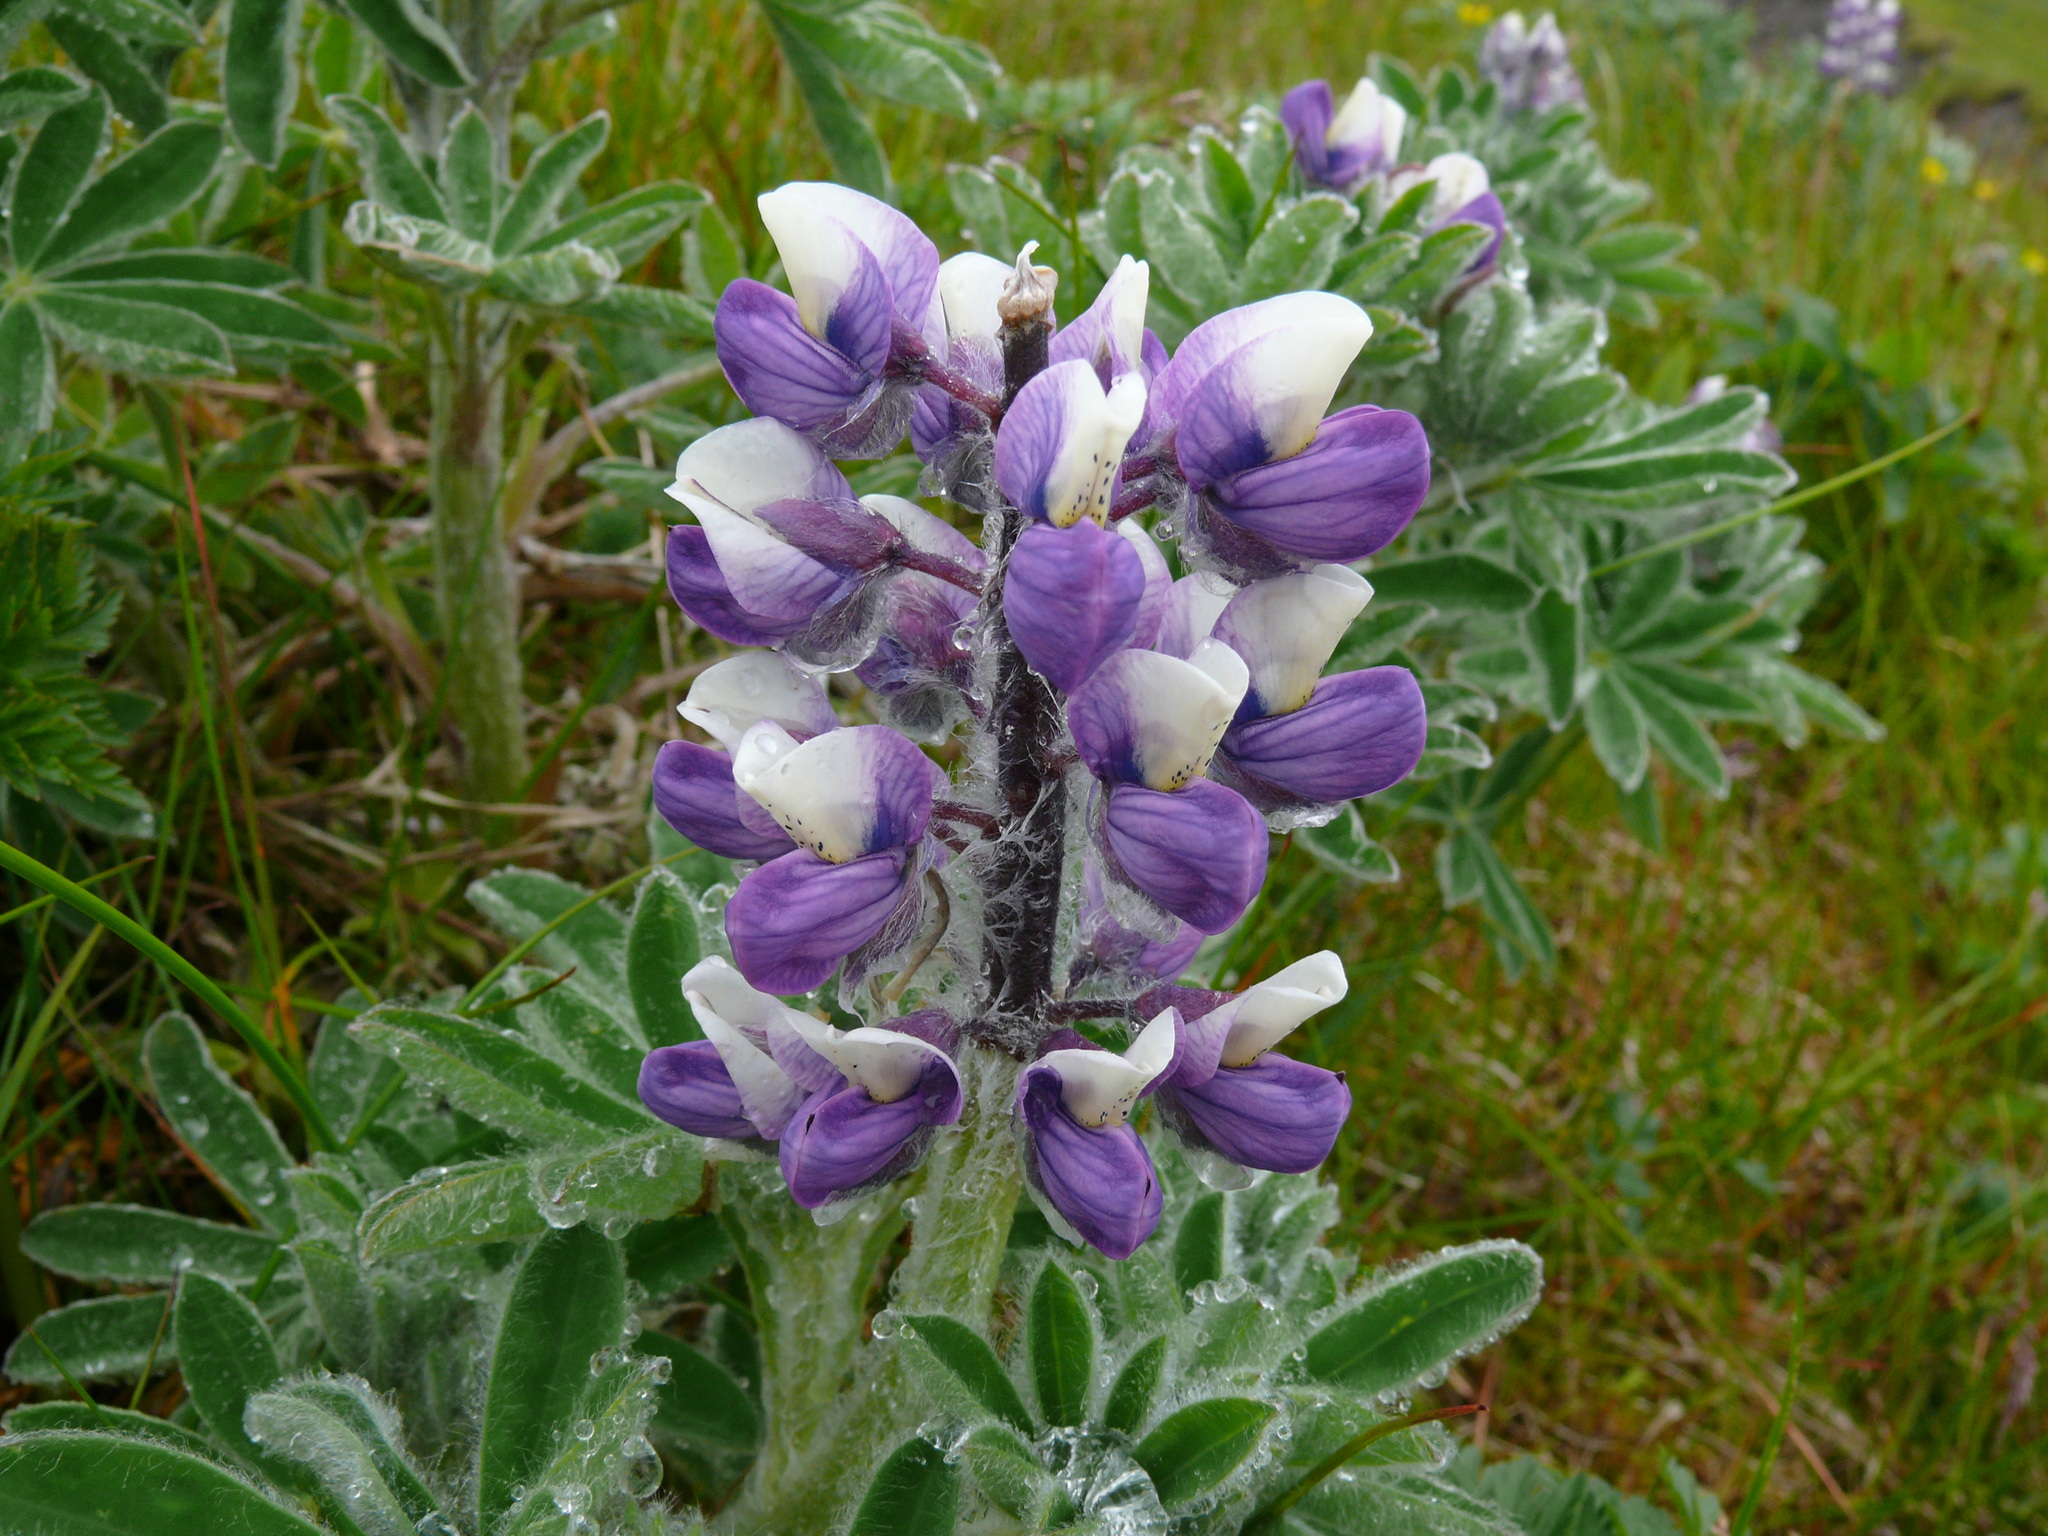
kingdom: Plantae
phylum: Tracheophyta
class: Magnoliopsida
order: Fabales
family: Fabaceae
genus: Lupinus
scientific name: Lupinus nootkatensis
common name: Nootka lupine
